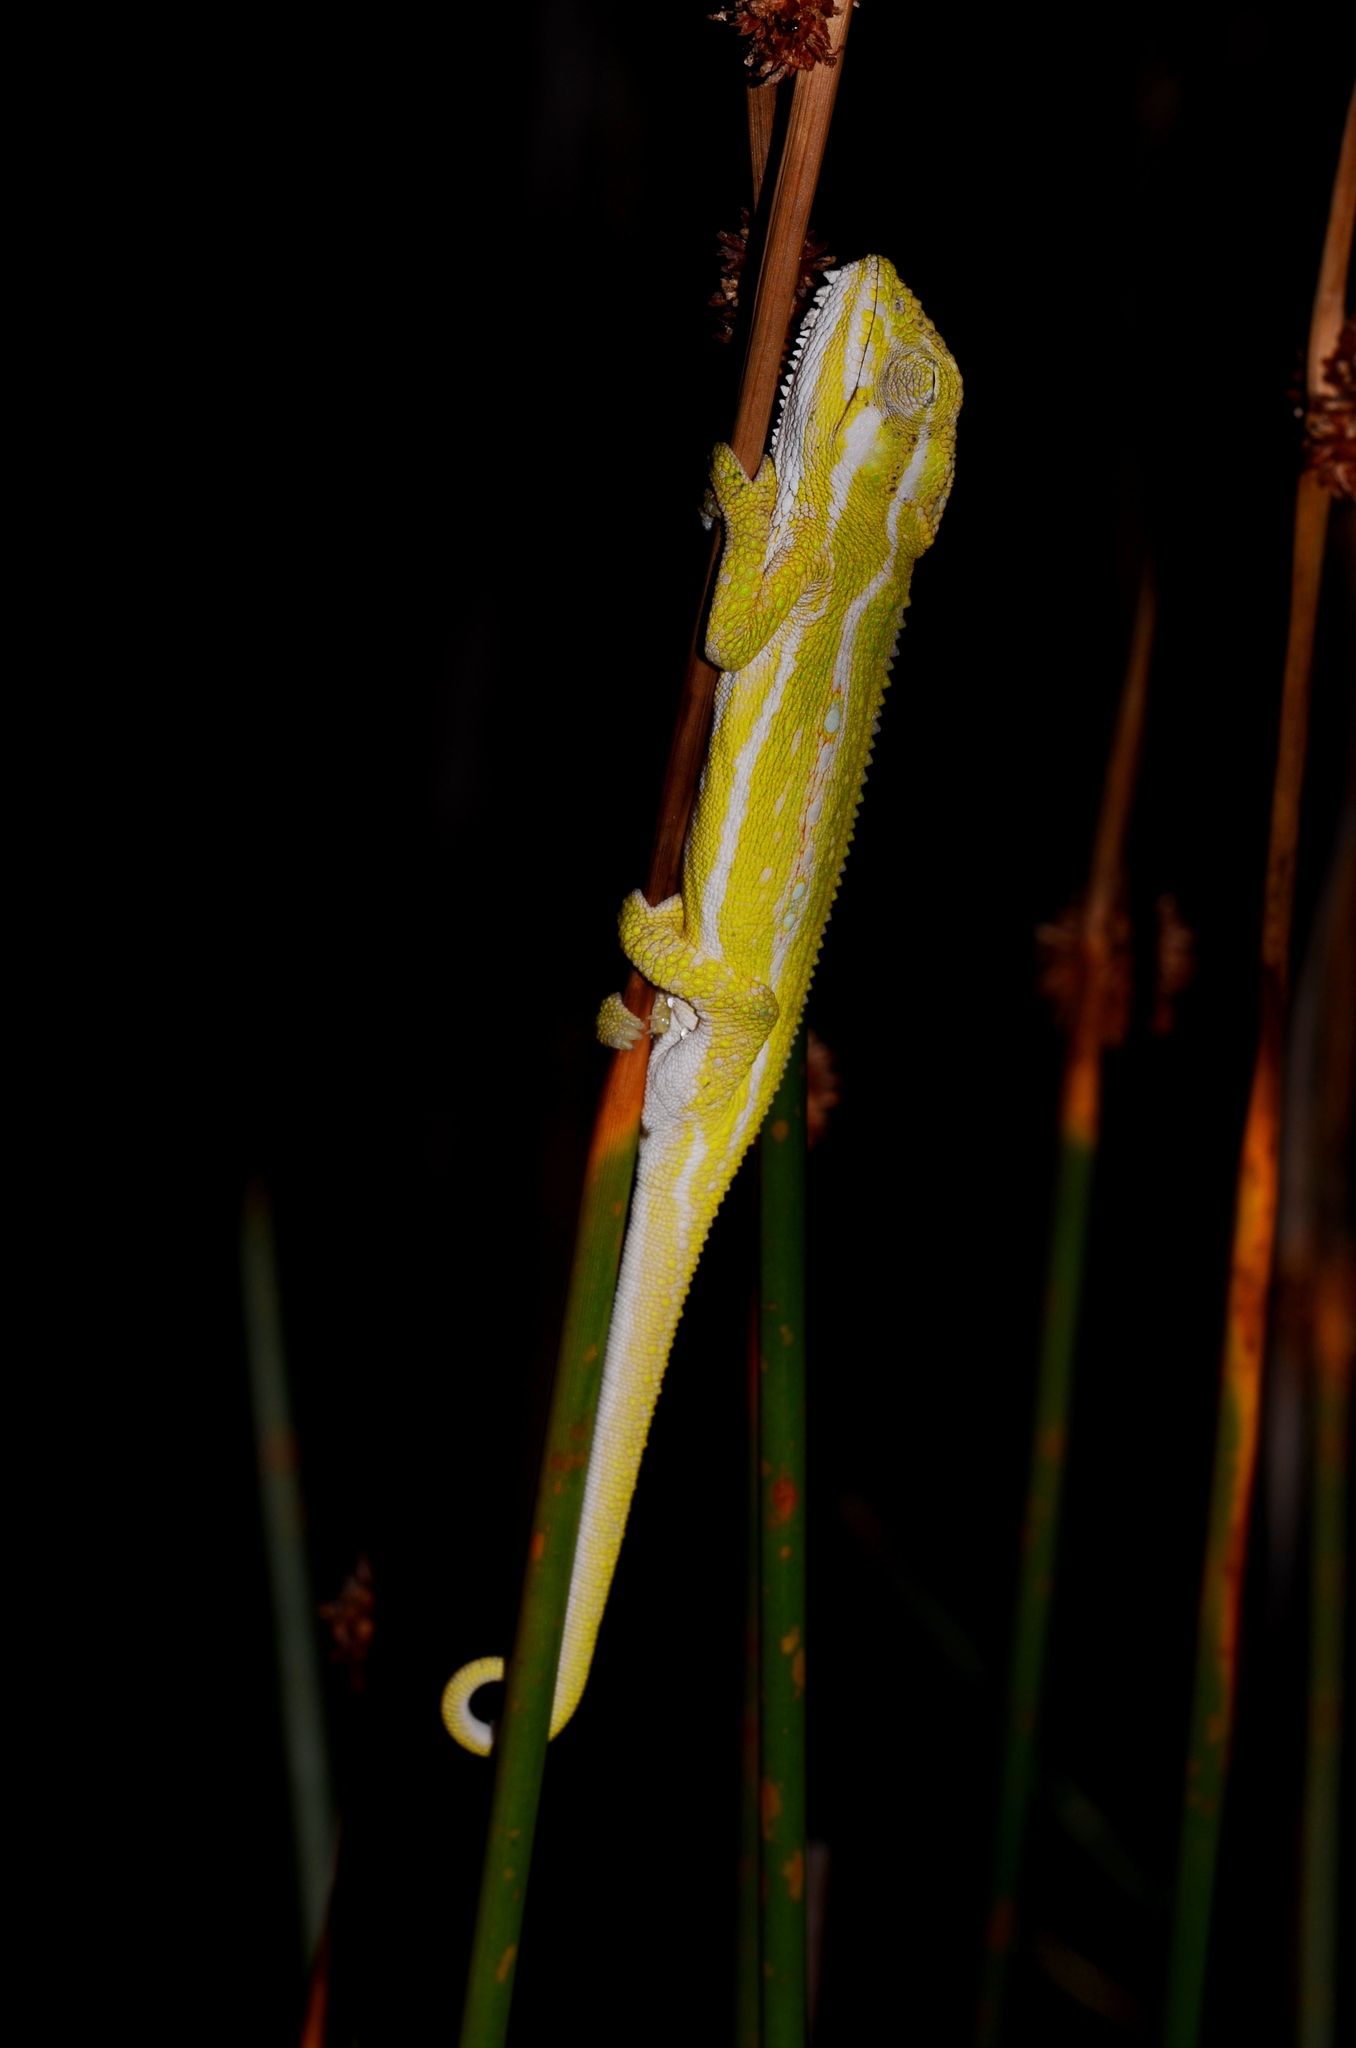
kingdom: Animalia
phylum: Chordata
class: Squamata
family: Chamaeleonidae
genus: Bradypodion
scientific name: Bradypodion pumilum
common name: Cape dwarf chameleon
